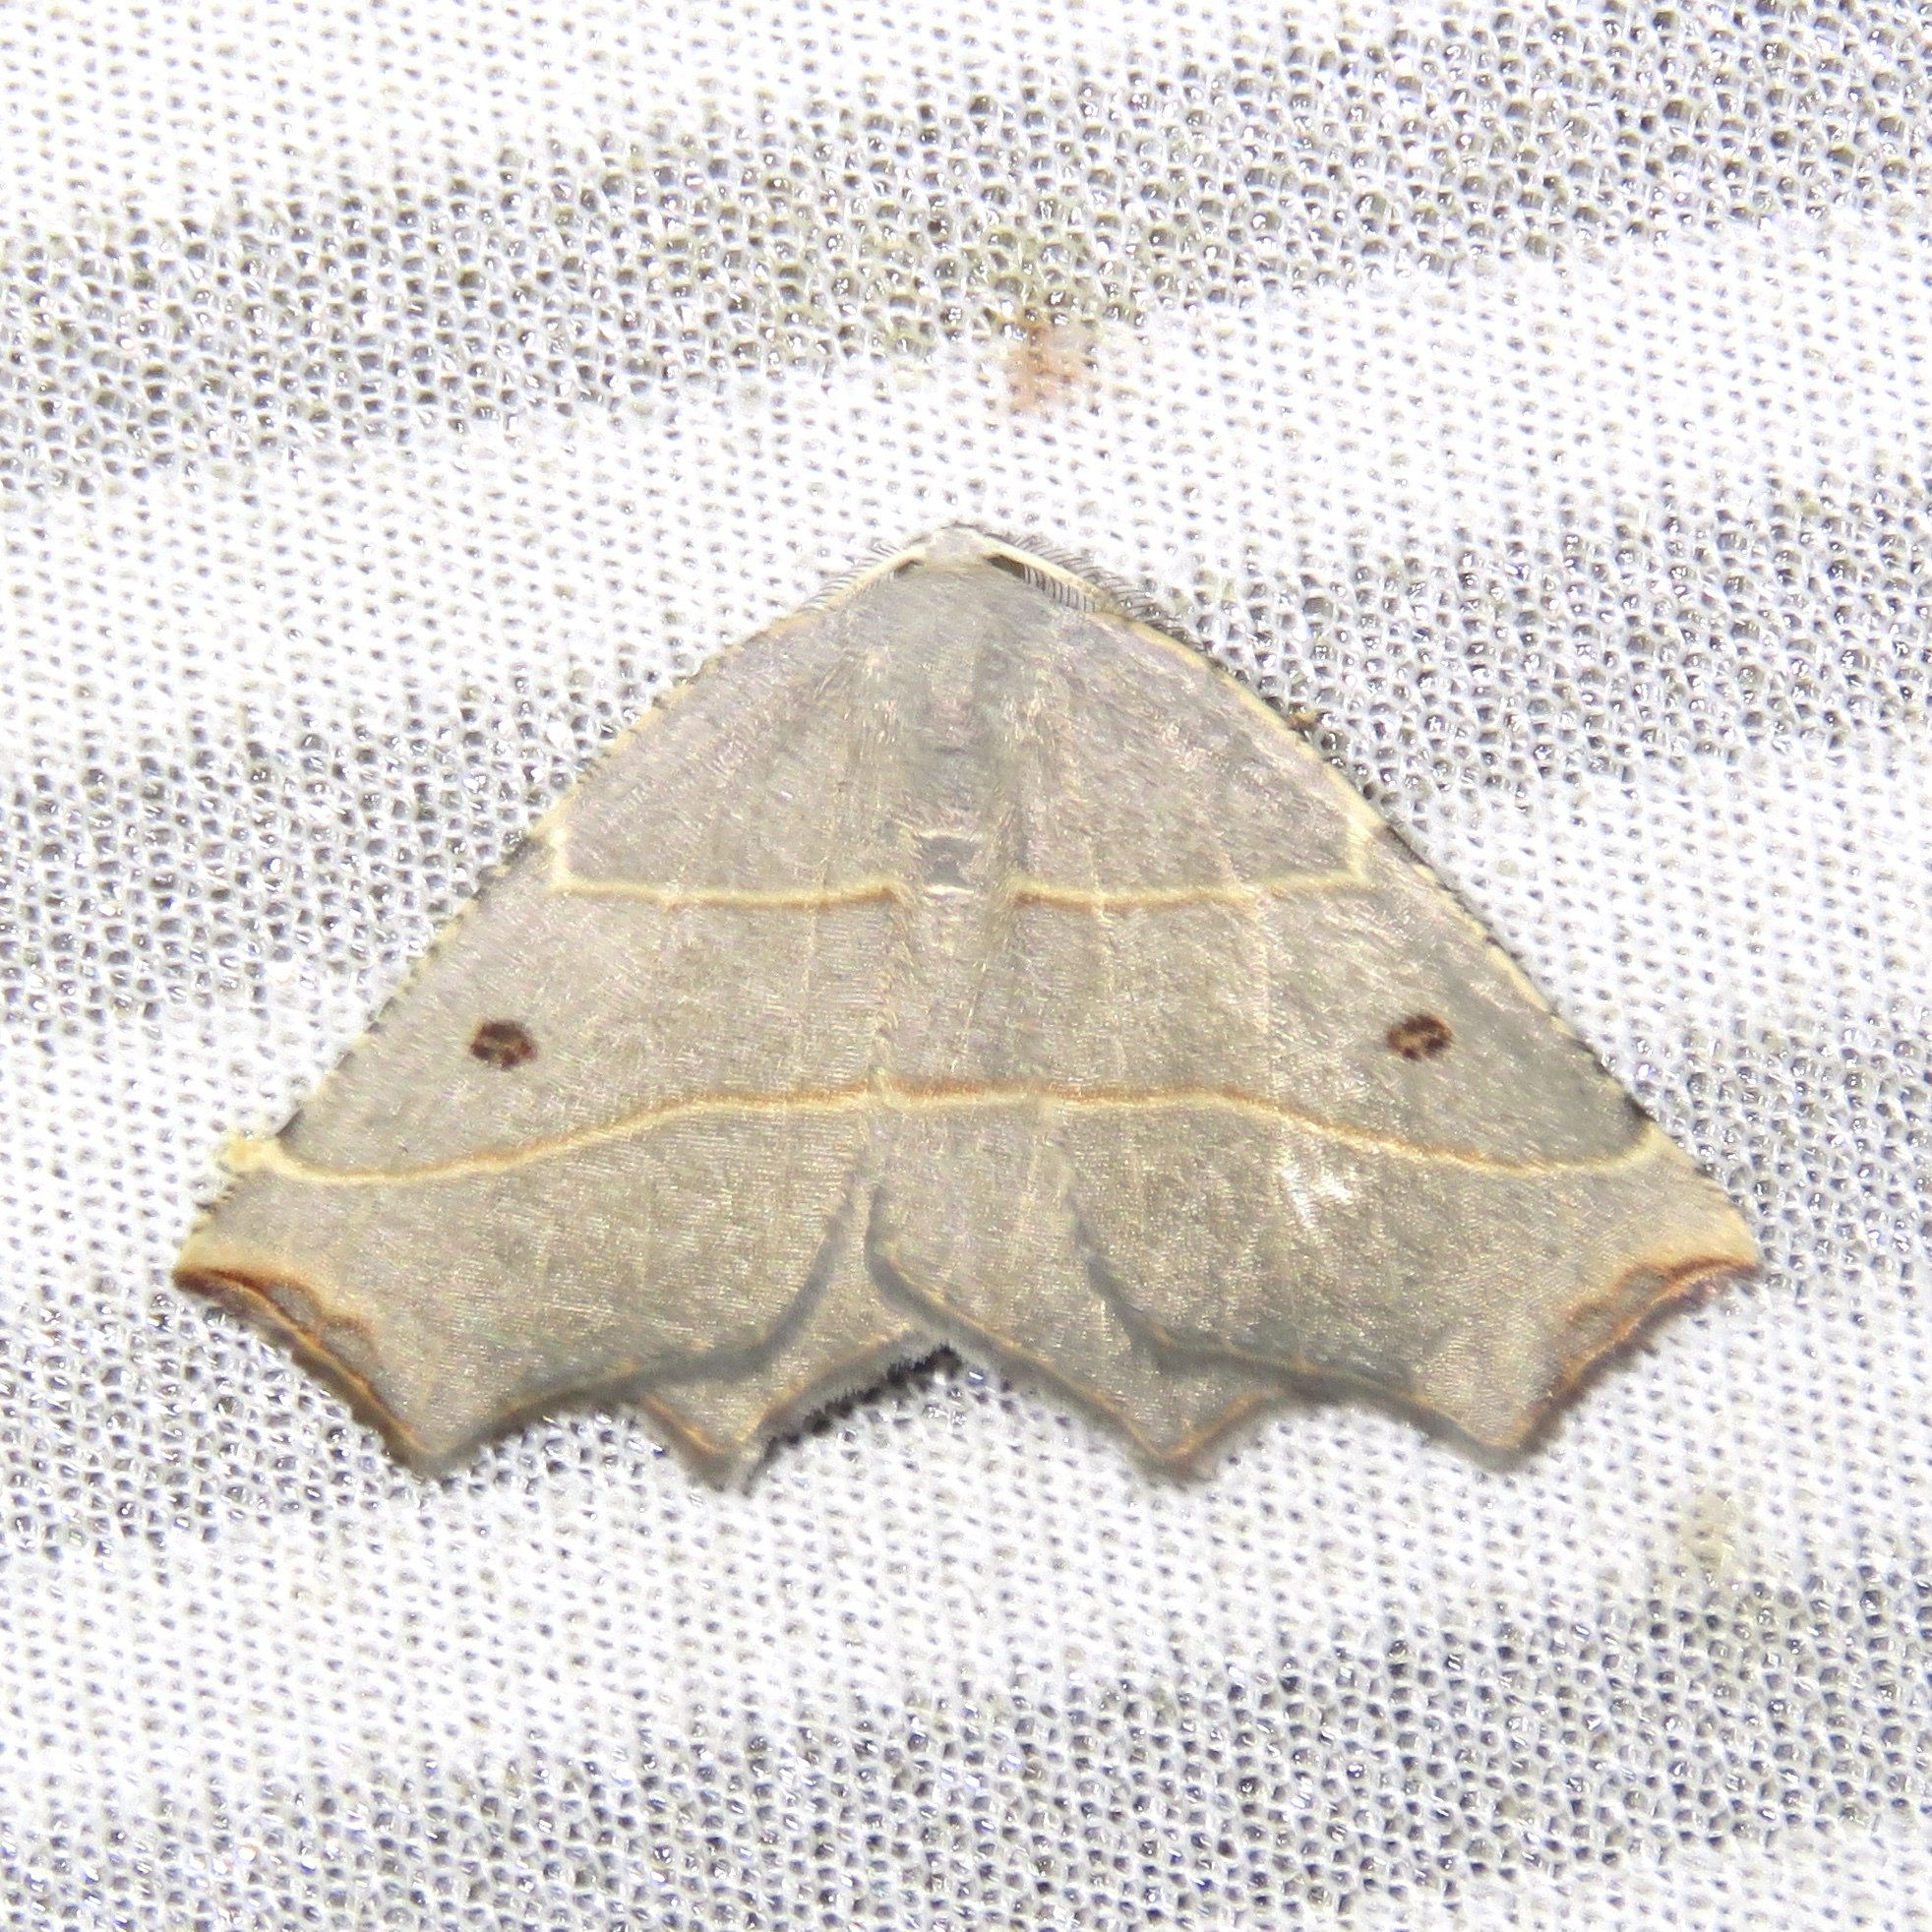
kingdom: Animalia
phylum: Arthropoda
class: Insecta
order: Lepidoptera
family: Geometridae
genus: Metanema
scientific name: Metanema inatomaria
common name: Pale metanema
